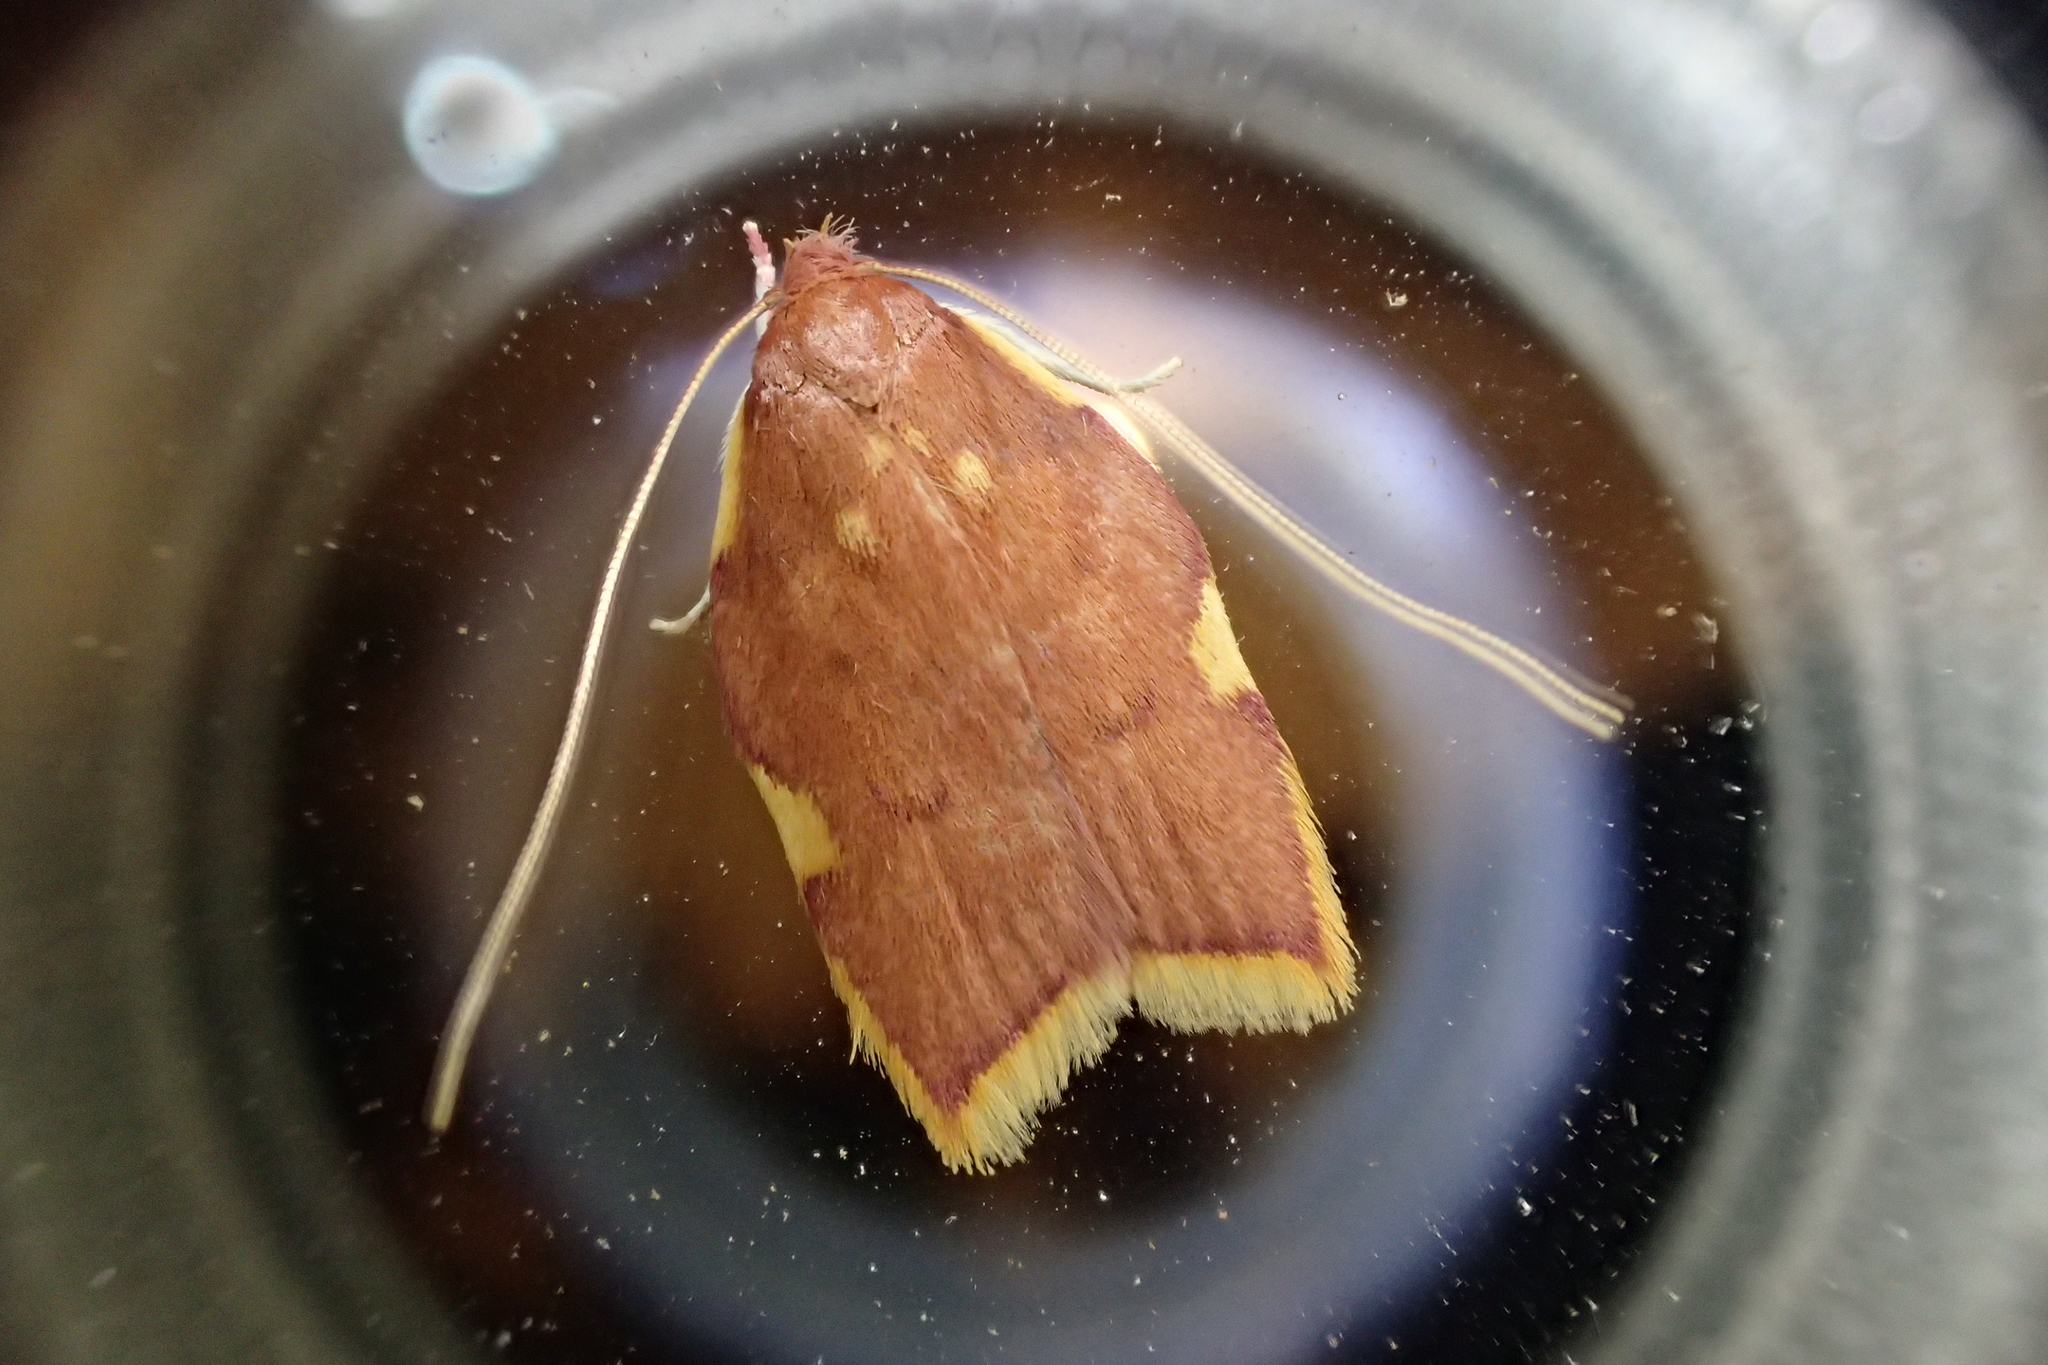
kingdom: Animalia
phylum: Arthropoda
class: Insecta
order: Lepidoptera
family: Peleopodidae
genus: Carcina
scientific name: Carcina quercana
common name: Moth
